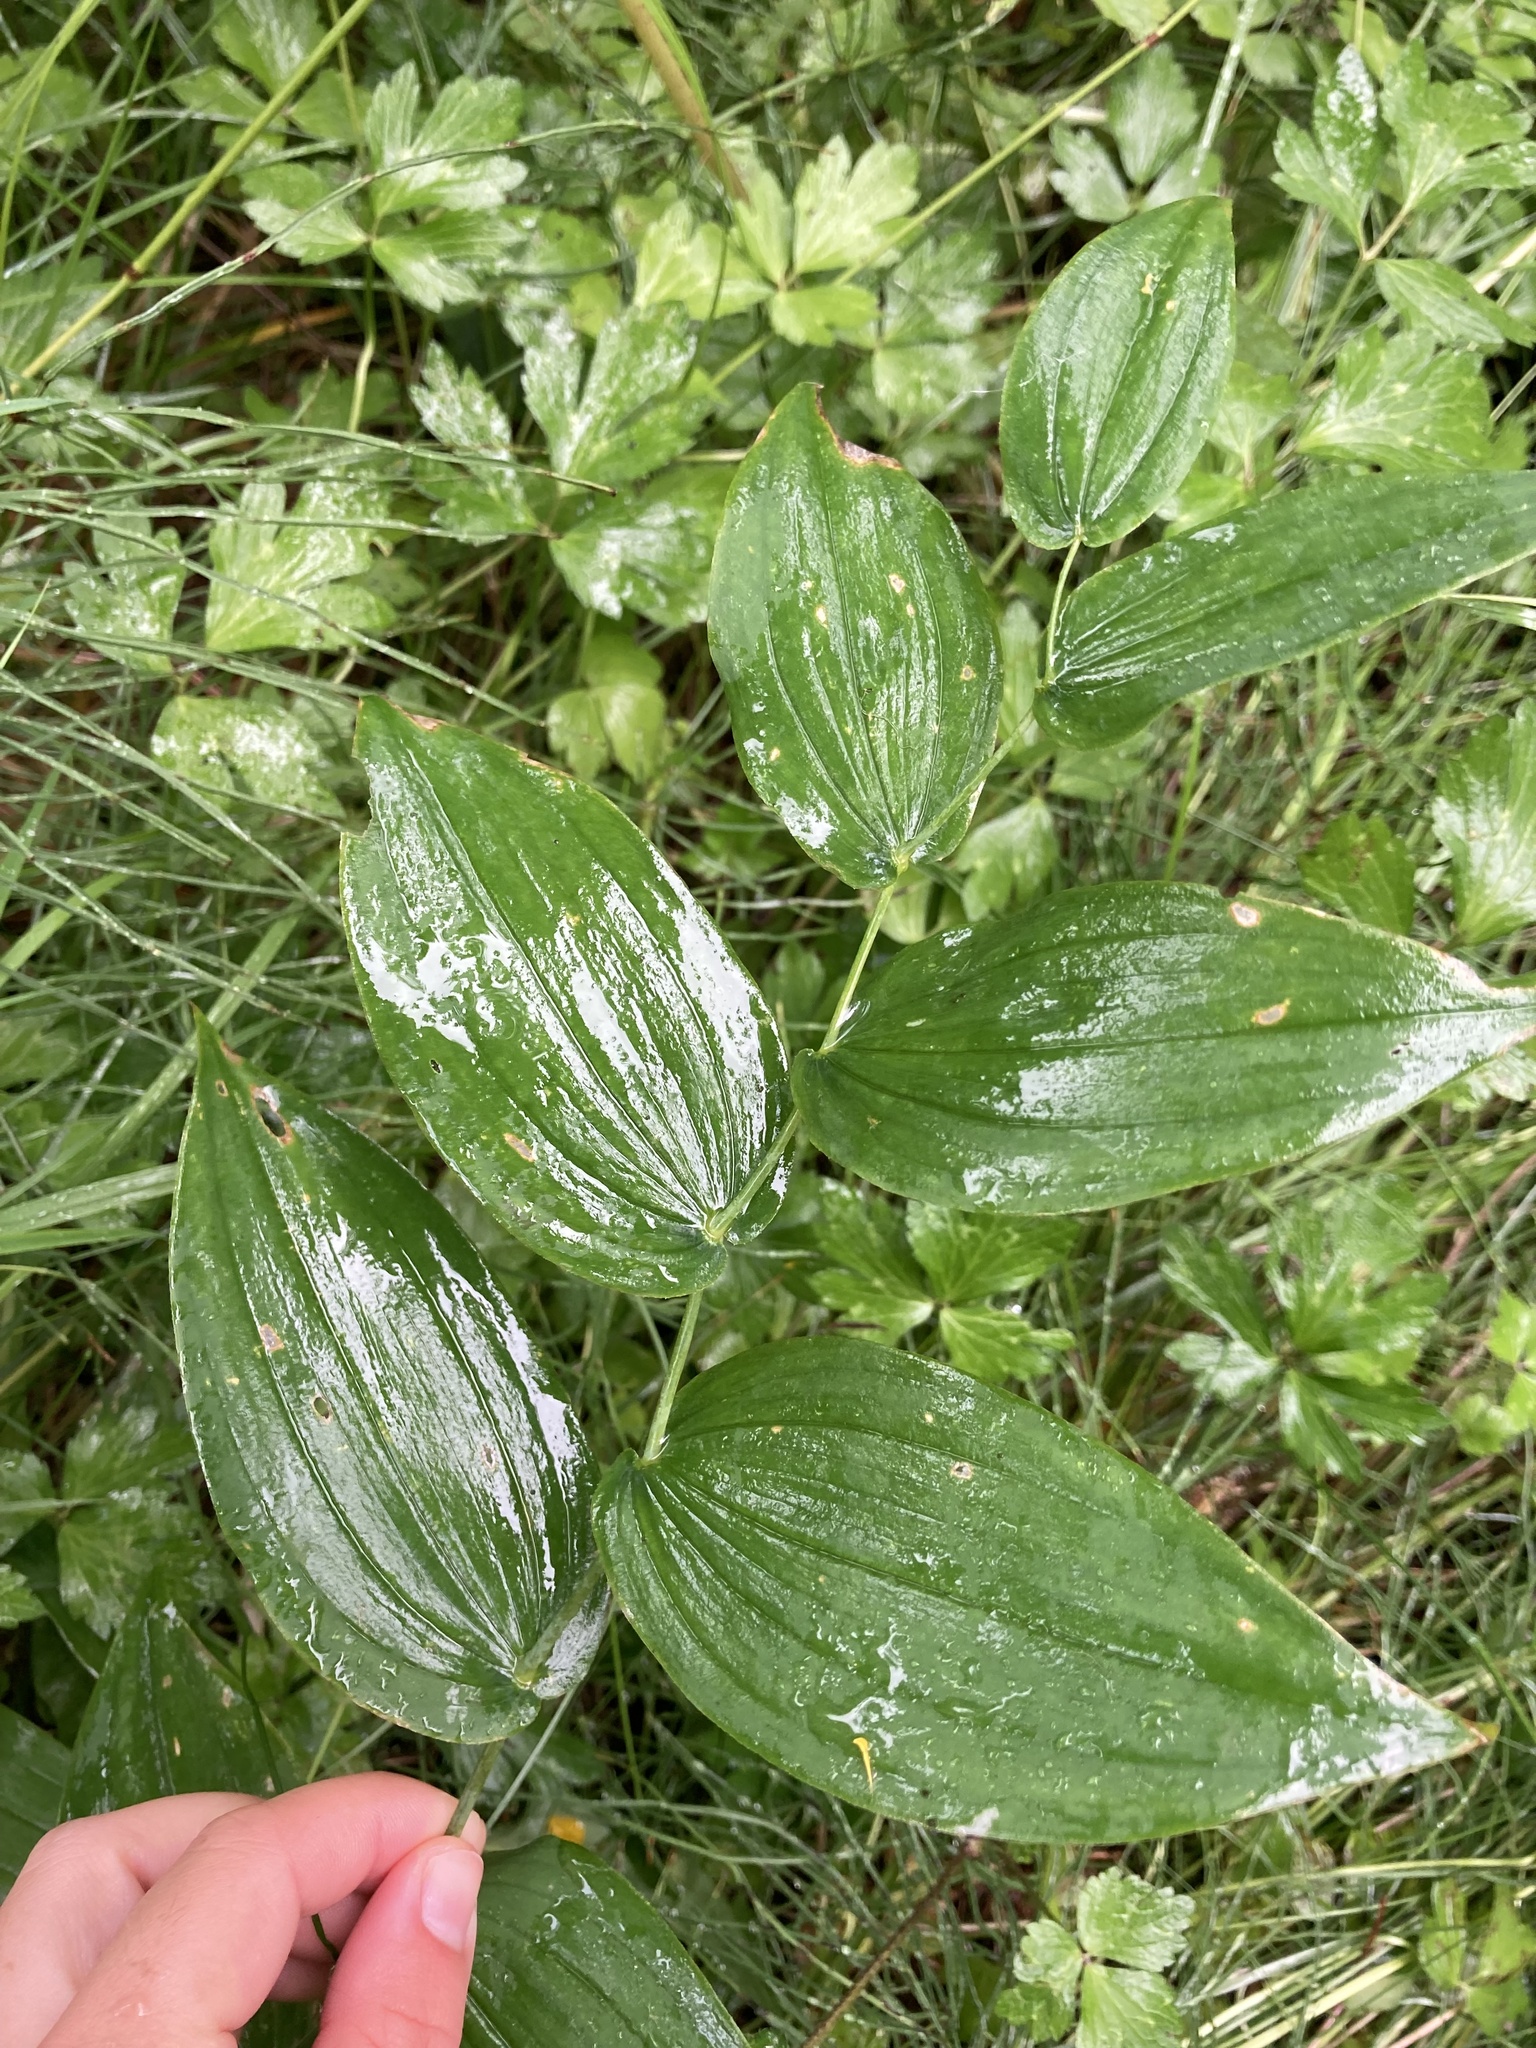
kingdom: Plantae
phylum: Tracheophyta
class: Liliopsida
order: Liliales
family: Liliaceae
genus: Streptopus
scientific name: Streptopus amplexifolius
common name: Clasp twisted stalk
